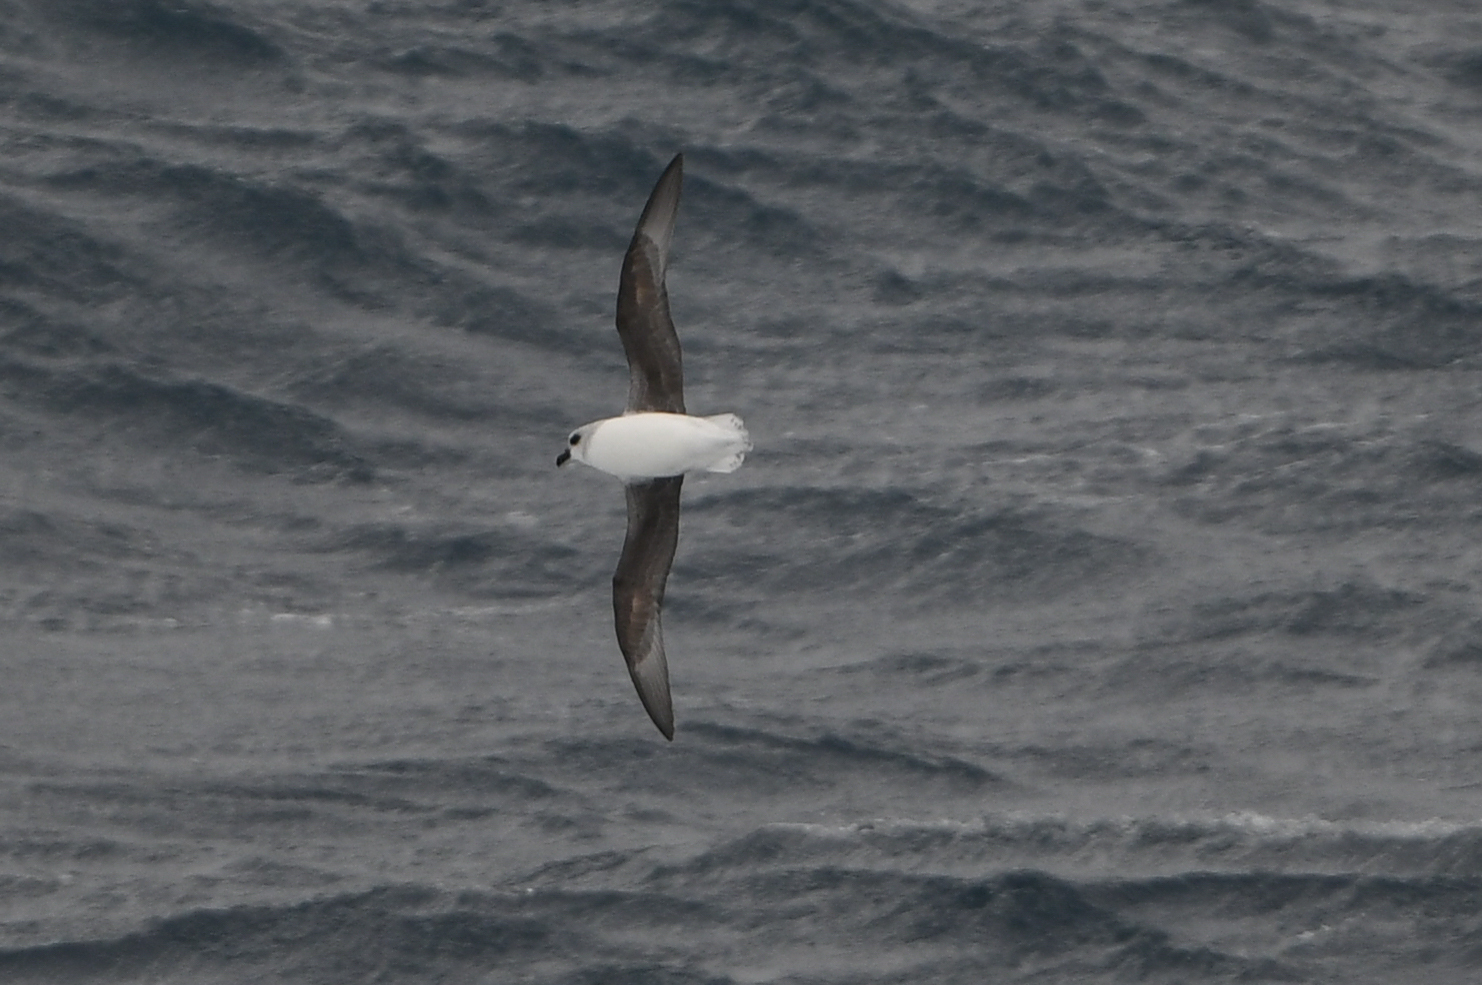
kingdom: Animalia
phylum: Chordata
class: Aves
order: Procellariiformes
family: Procellariidae
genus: Pterodroma
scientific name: Pterodroma lessonii
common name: White-headed petrel
